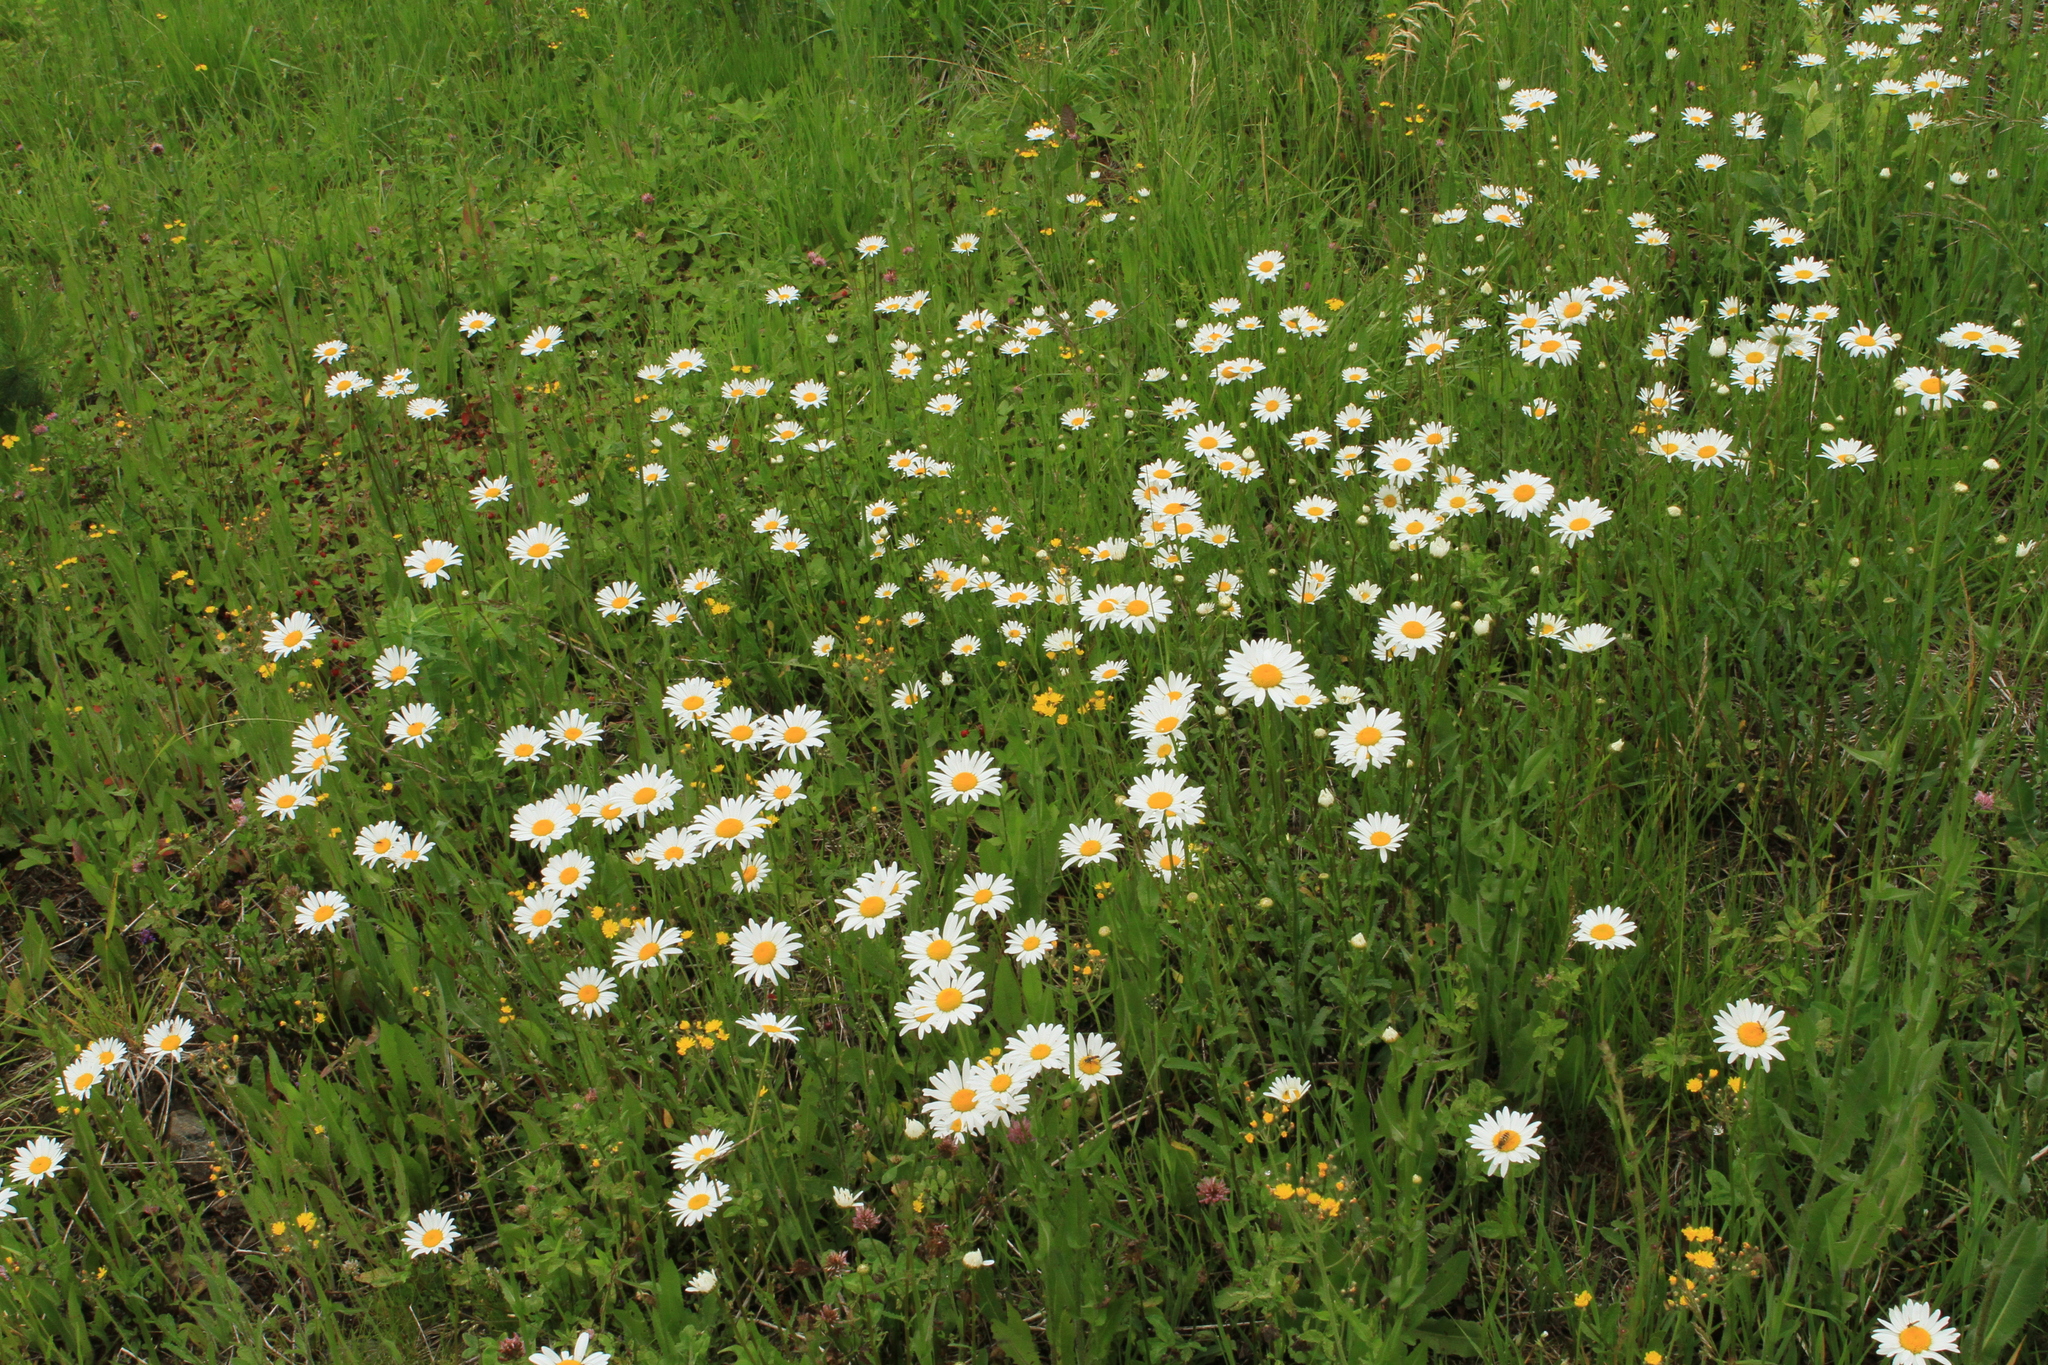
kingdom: Plantae
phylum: Tracheophyta
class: Magnoliopsida
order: Asterales
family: Asteraceae
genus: Leucanthemum
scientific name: Leucanthemum ircutianum
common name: Daisy
